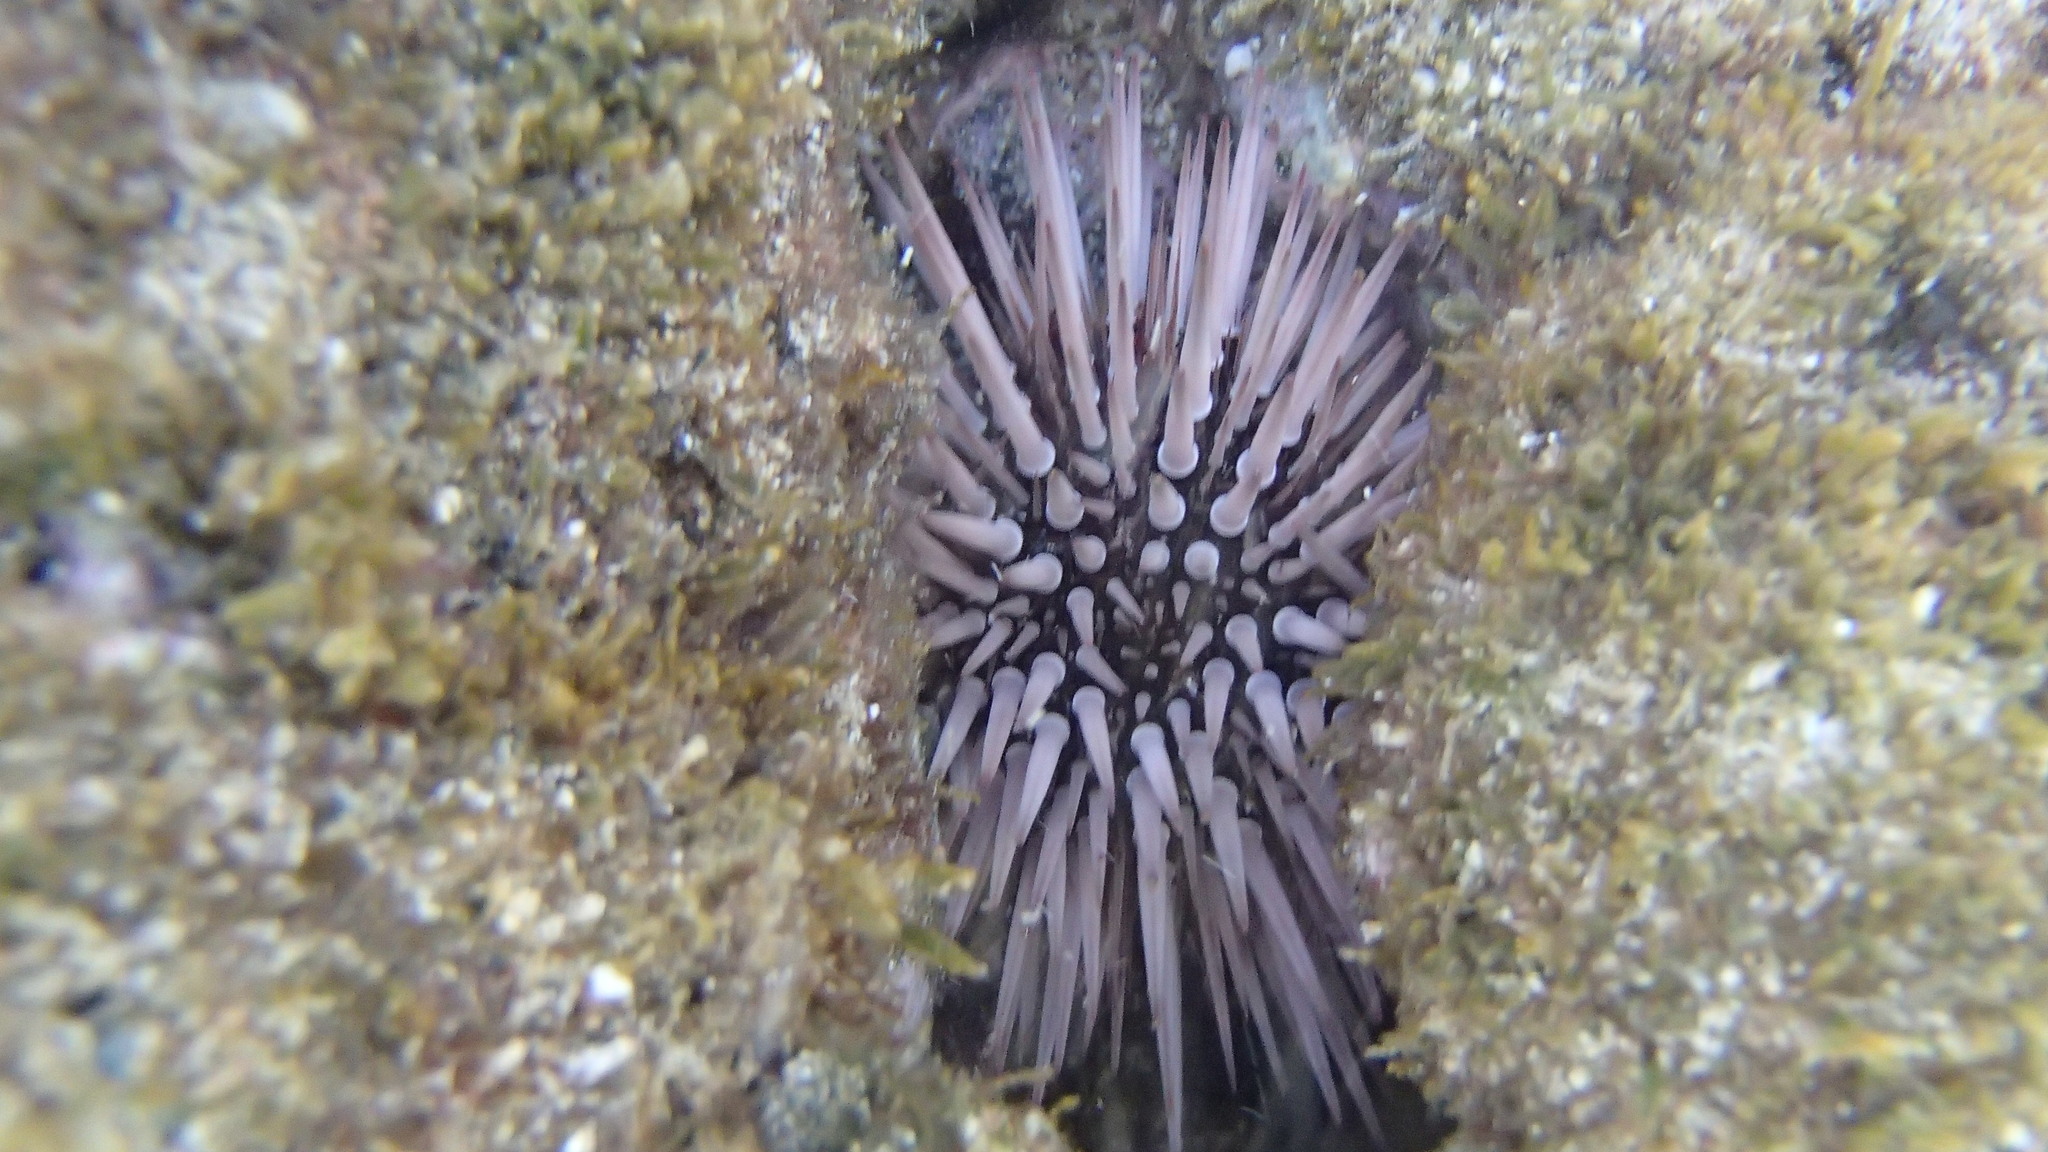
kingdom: Animalia
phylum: Echinodermata
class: Echinoidea
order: Camarodonta
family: Echinometridae
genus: Echinometra
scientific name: Echinometra mathaei
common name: Rock-boring urchin
